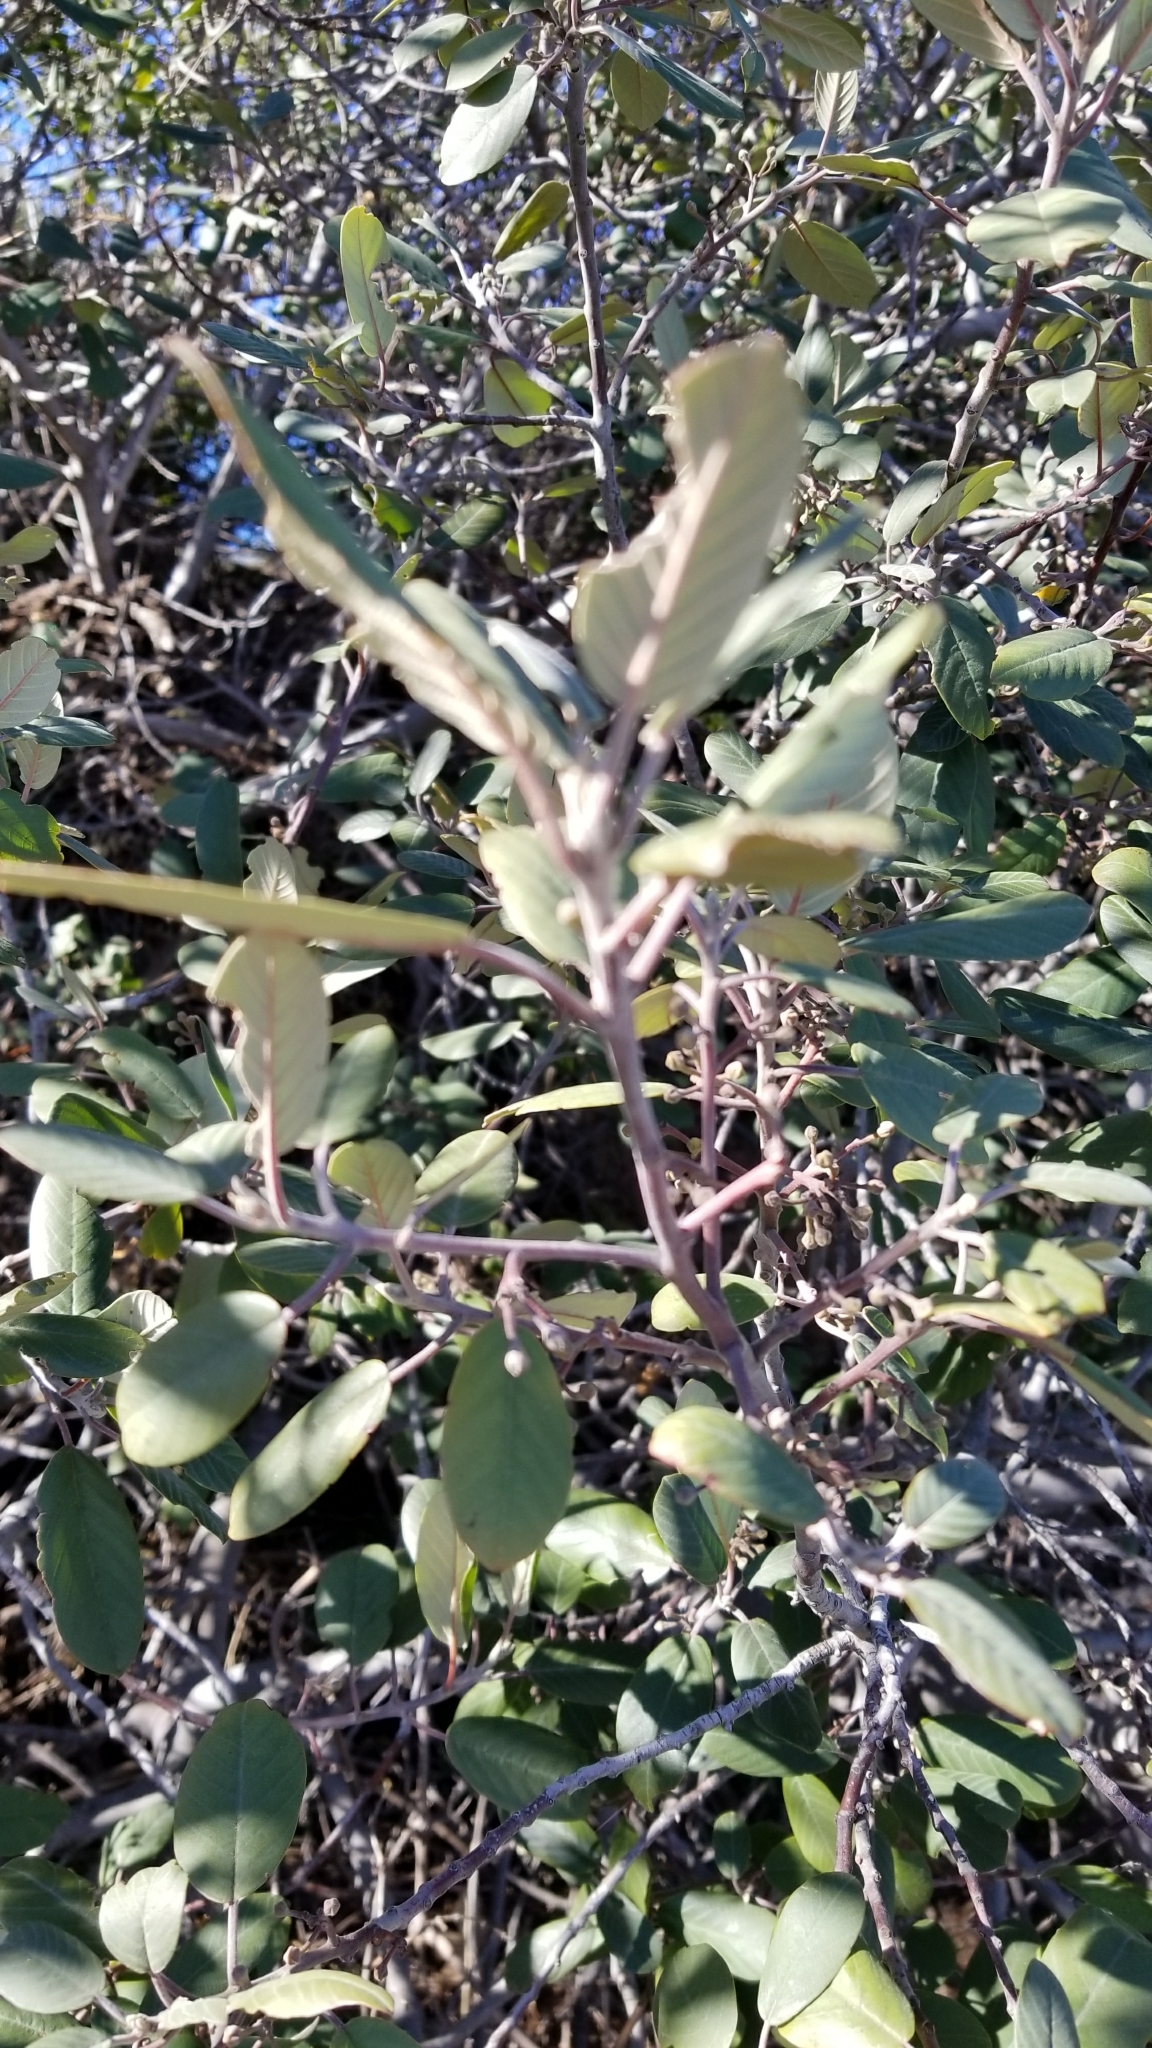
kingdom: Plantae
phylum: Tracheophyta
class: Magnoliopsida
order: Rosales
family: Rhamnaceae
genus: Frangula
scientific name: Frangula californica
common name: California buckthorn
